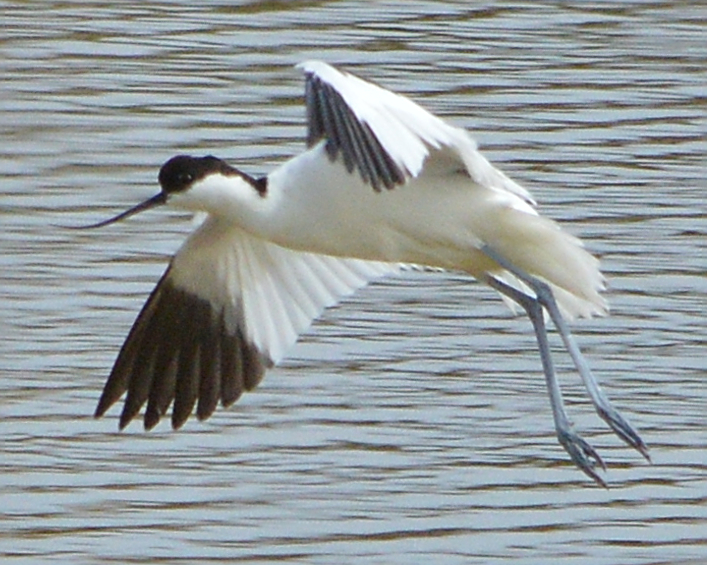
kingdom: Animalia
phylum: Chordata
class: Aves
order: Charadriiformes
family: Recurvirostridae
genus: Recurvirostra
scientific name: Recurvirostra avosetta
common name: Pied avocet
